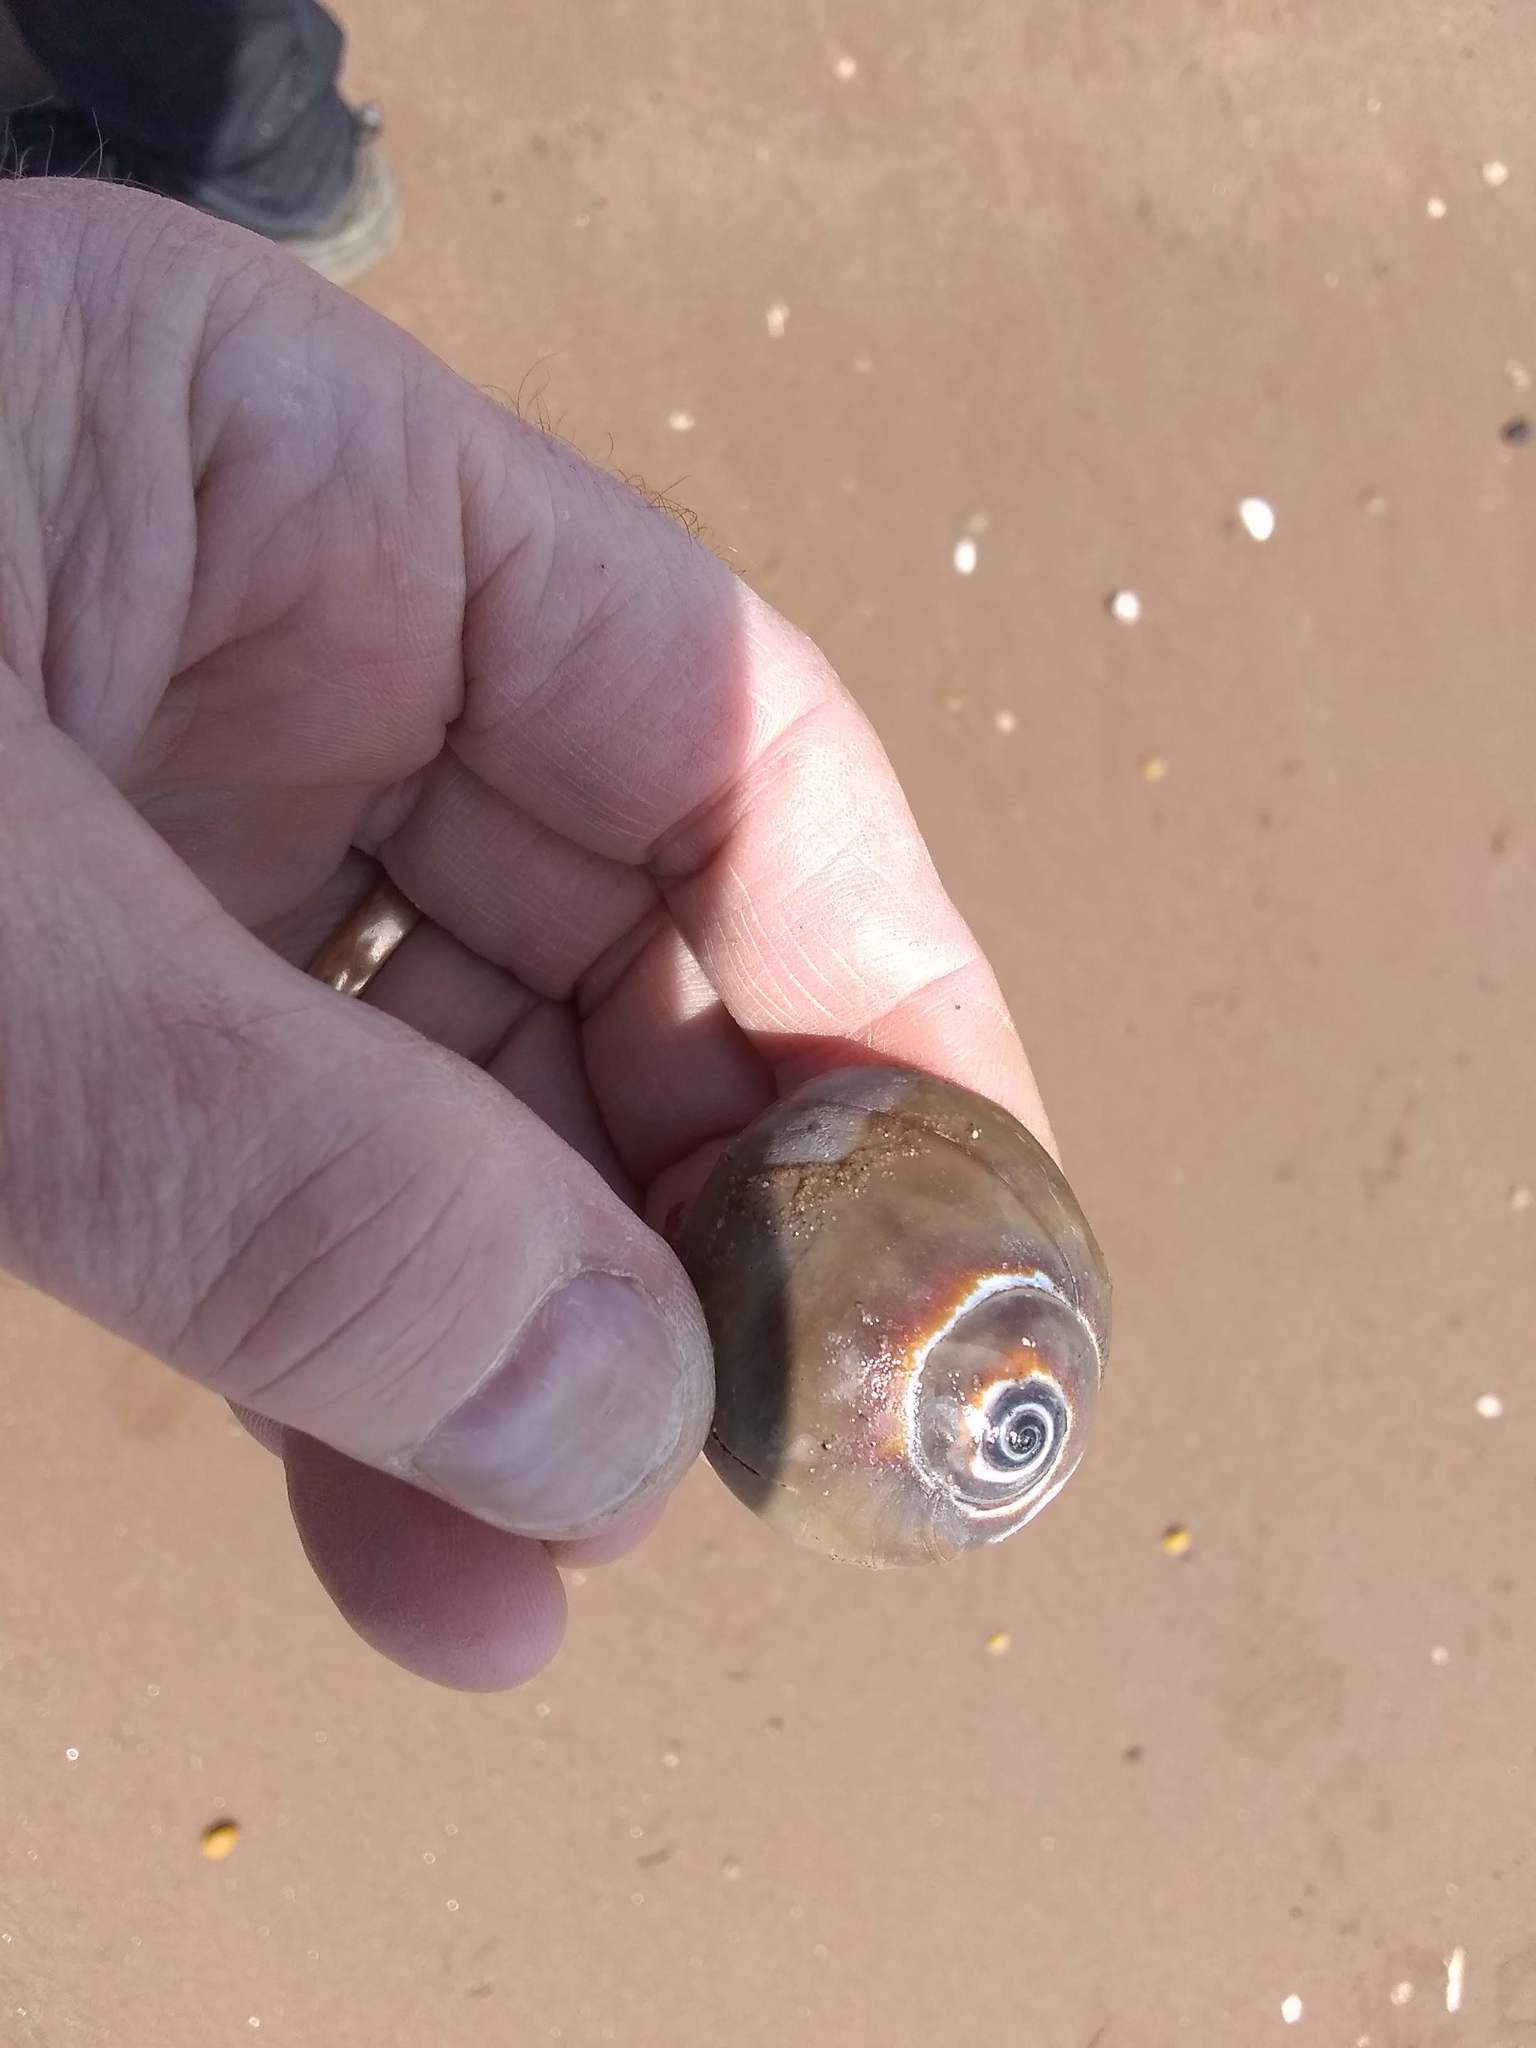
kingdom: Animalia
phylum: Mollusca
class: Gastropoda
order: Littorinimorpha
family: Naticidae
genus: Neverita
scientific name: Neverita duplicata
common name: Lobed moonsnail
